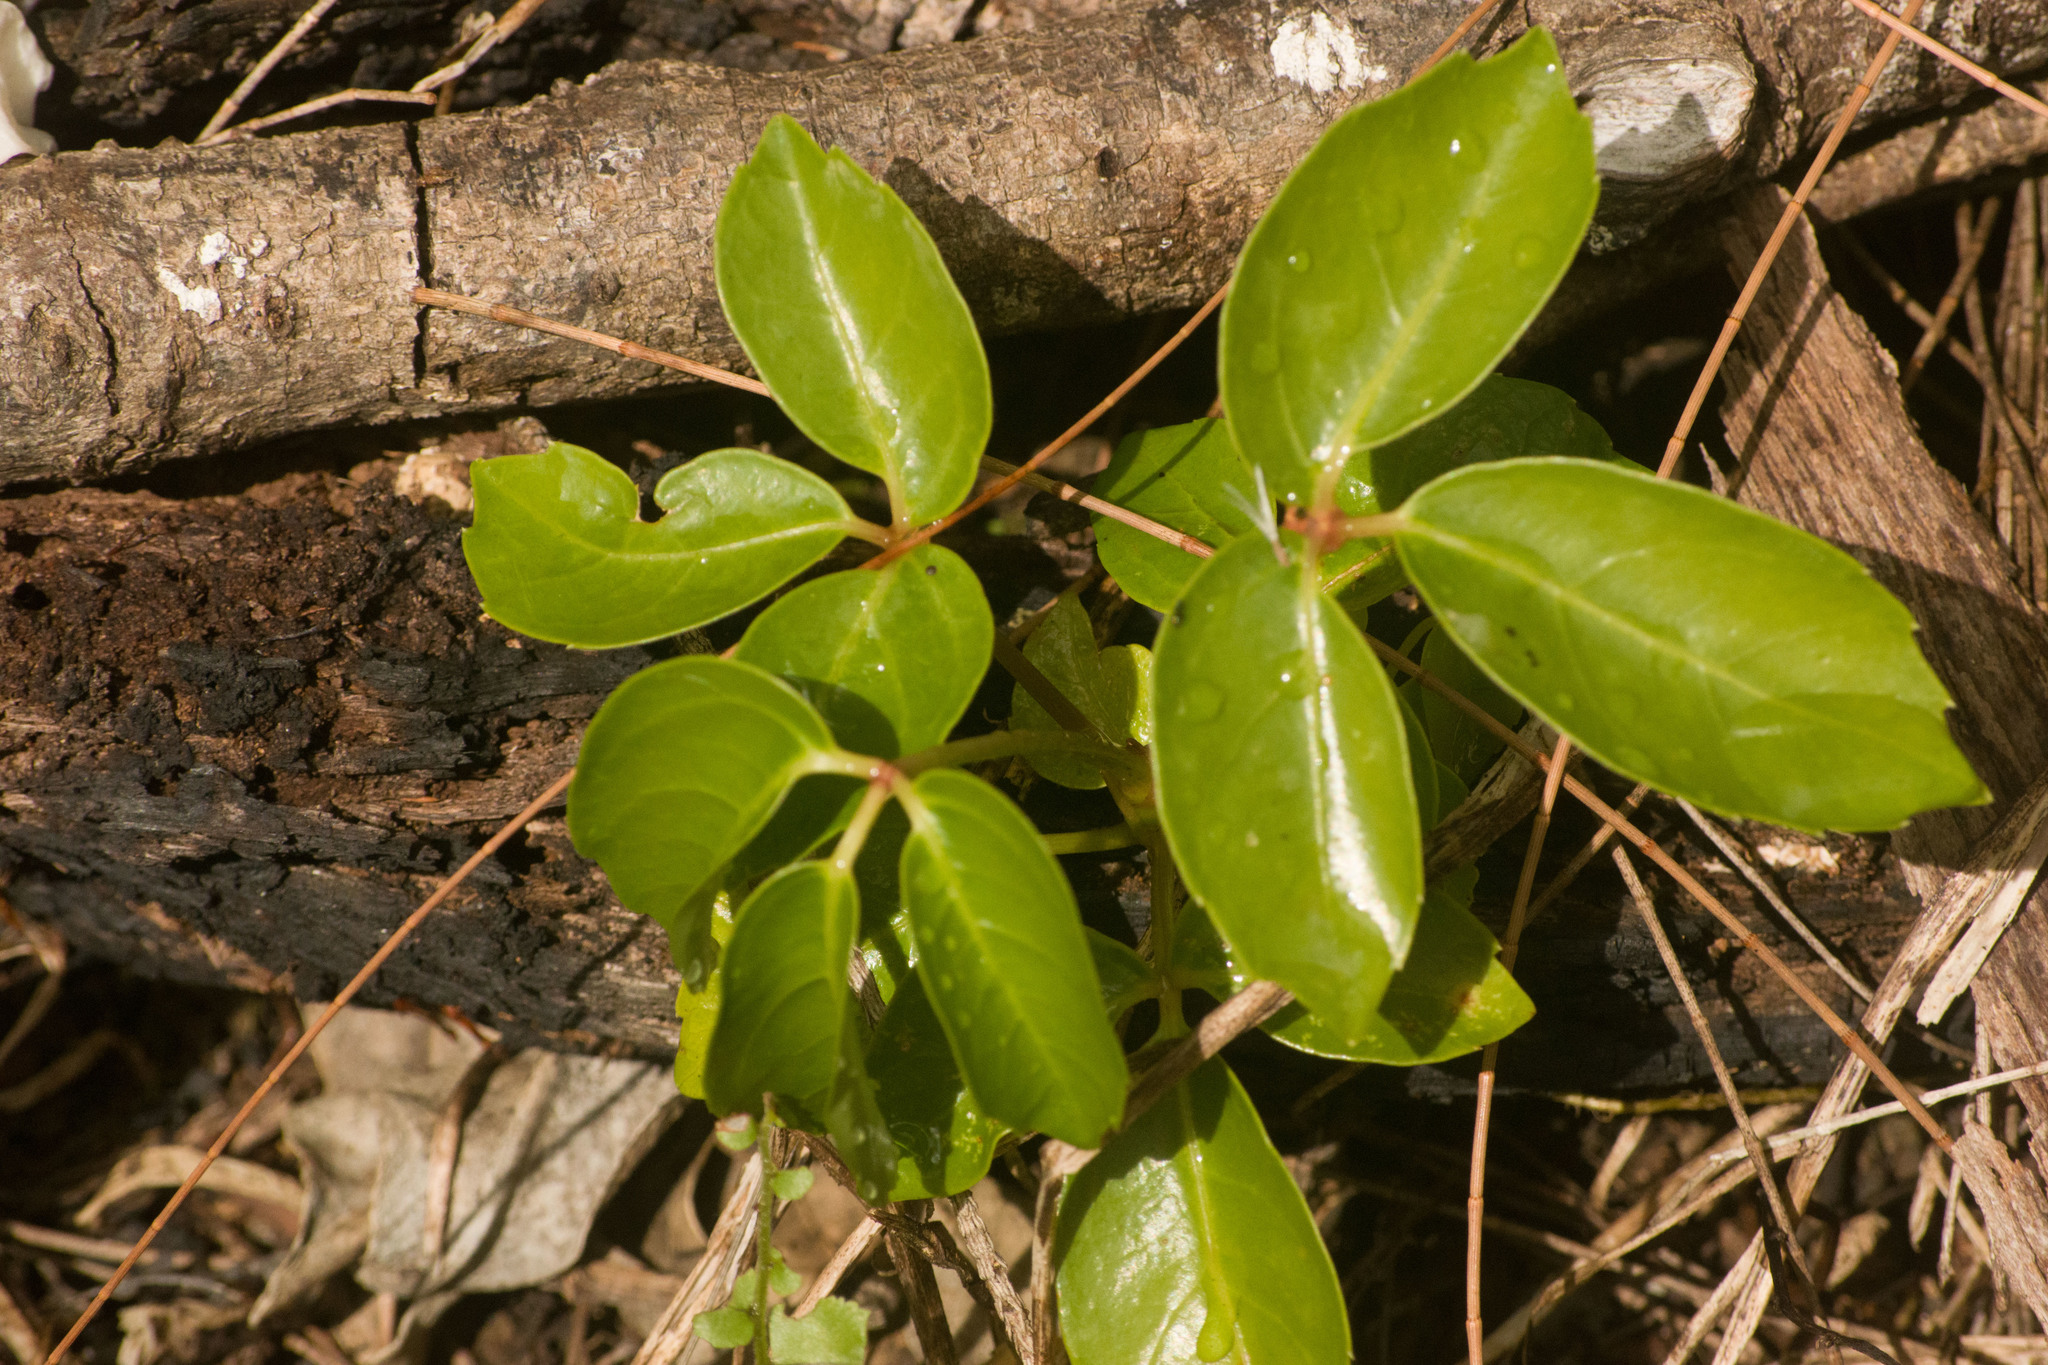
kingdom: Plantae
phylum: Tracheophyta
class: Magnoliopsida
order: Apiales
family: Araliaceae
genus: Heptapleurum
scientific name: Heptapleurum actinophyllum
